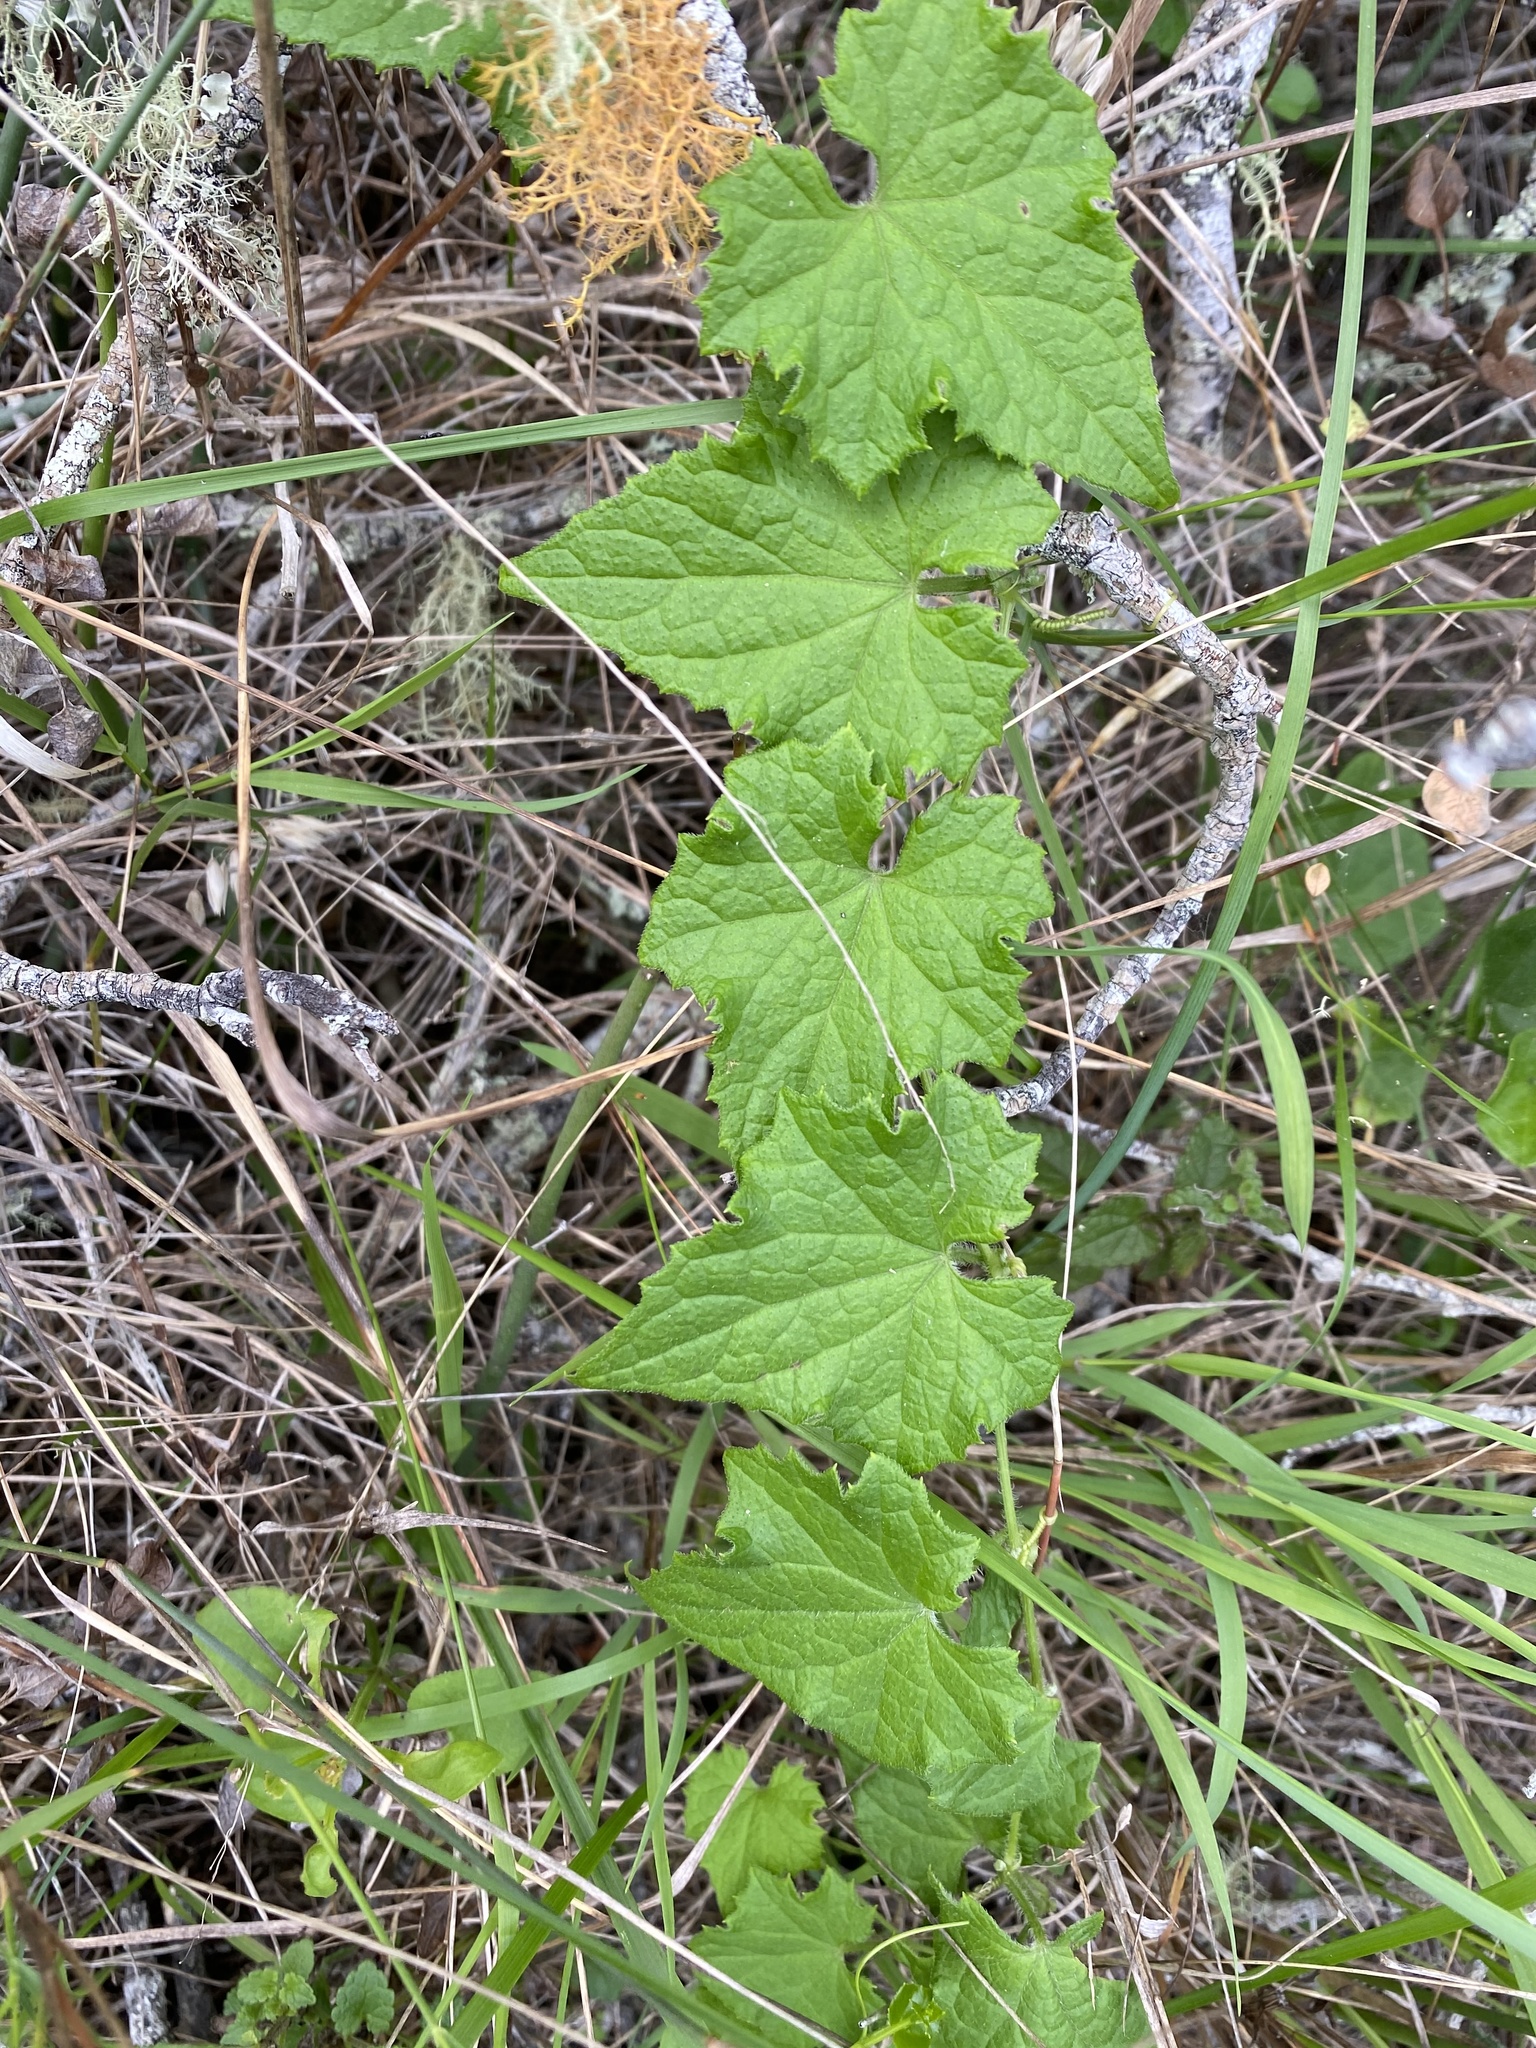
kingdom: Plantae
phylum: Tracheophyta
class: Magnoliopsida
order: Cucurbitales
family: Cucurbitaceae
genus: Zehneria
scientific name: Zehneria scabra
